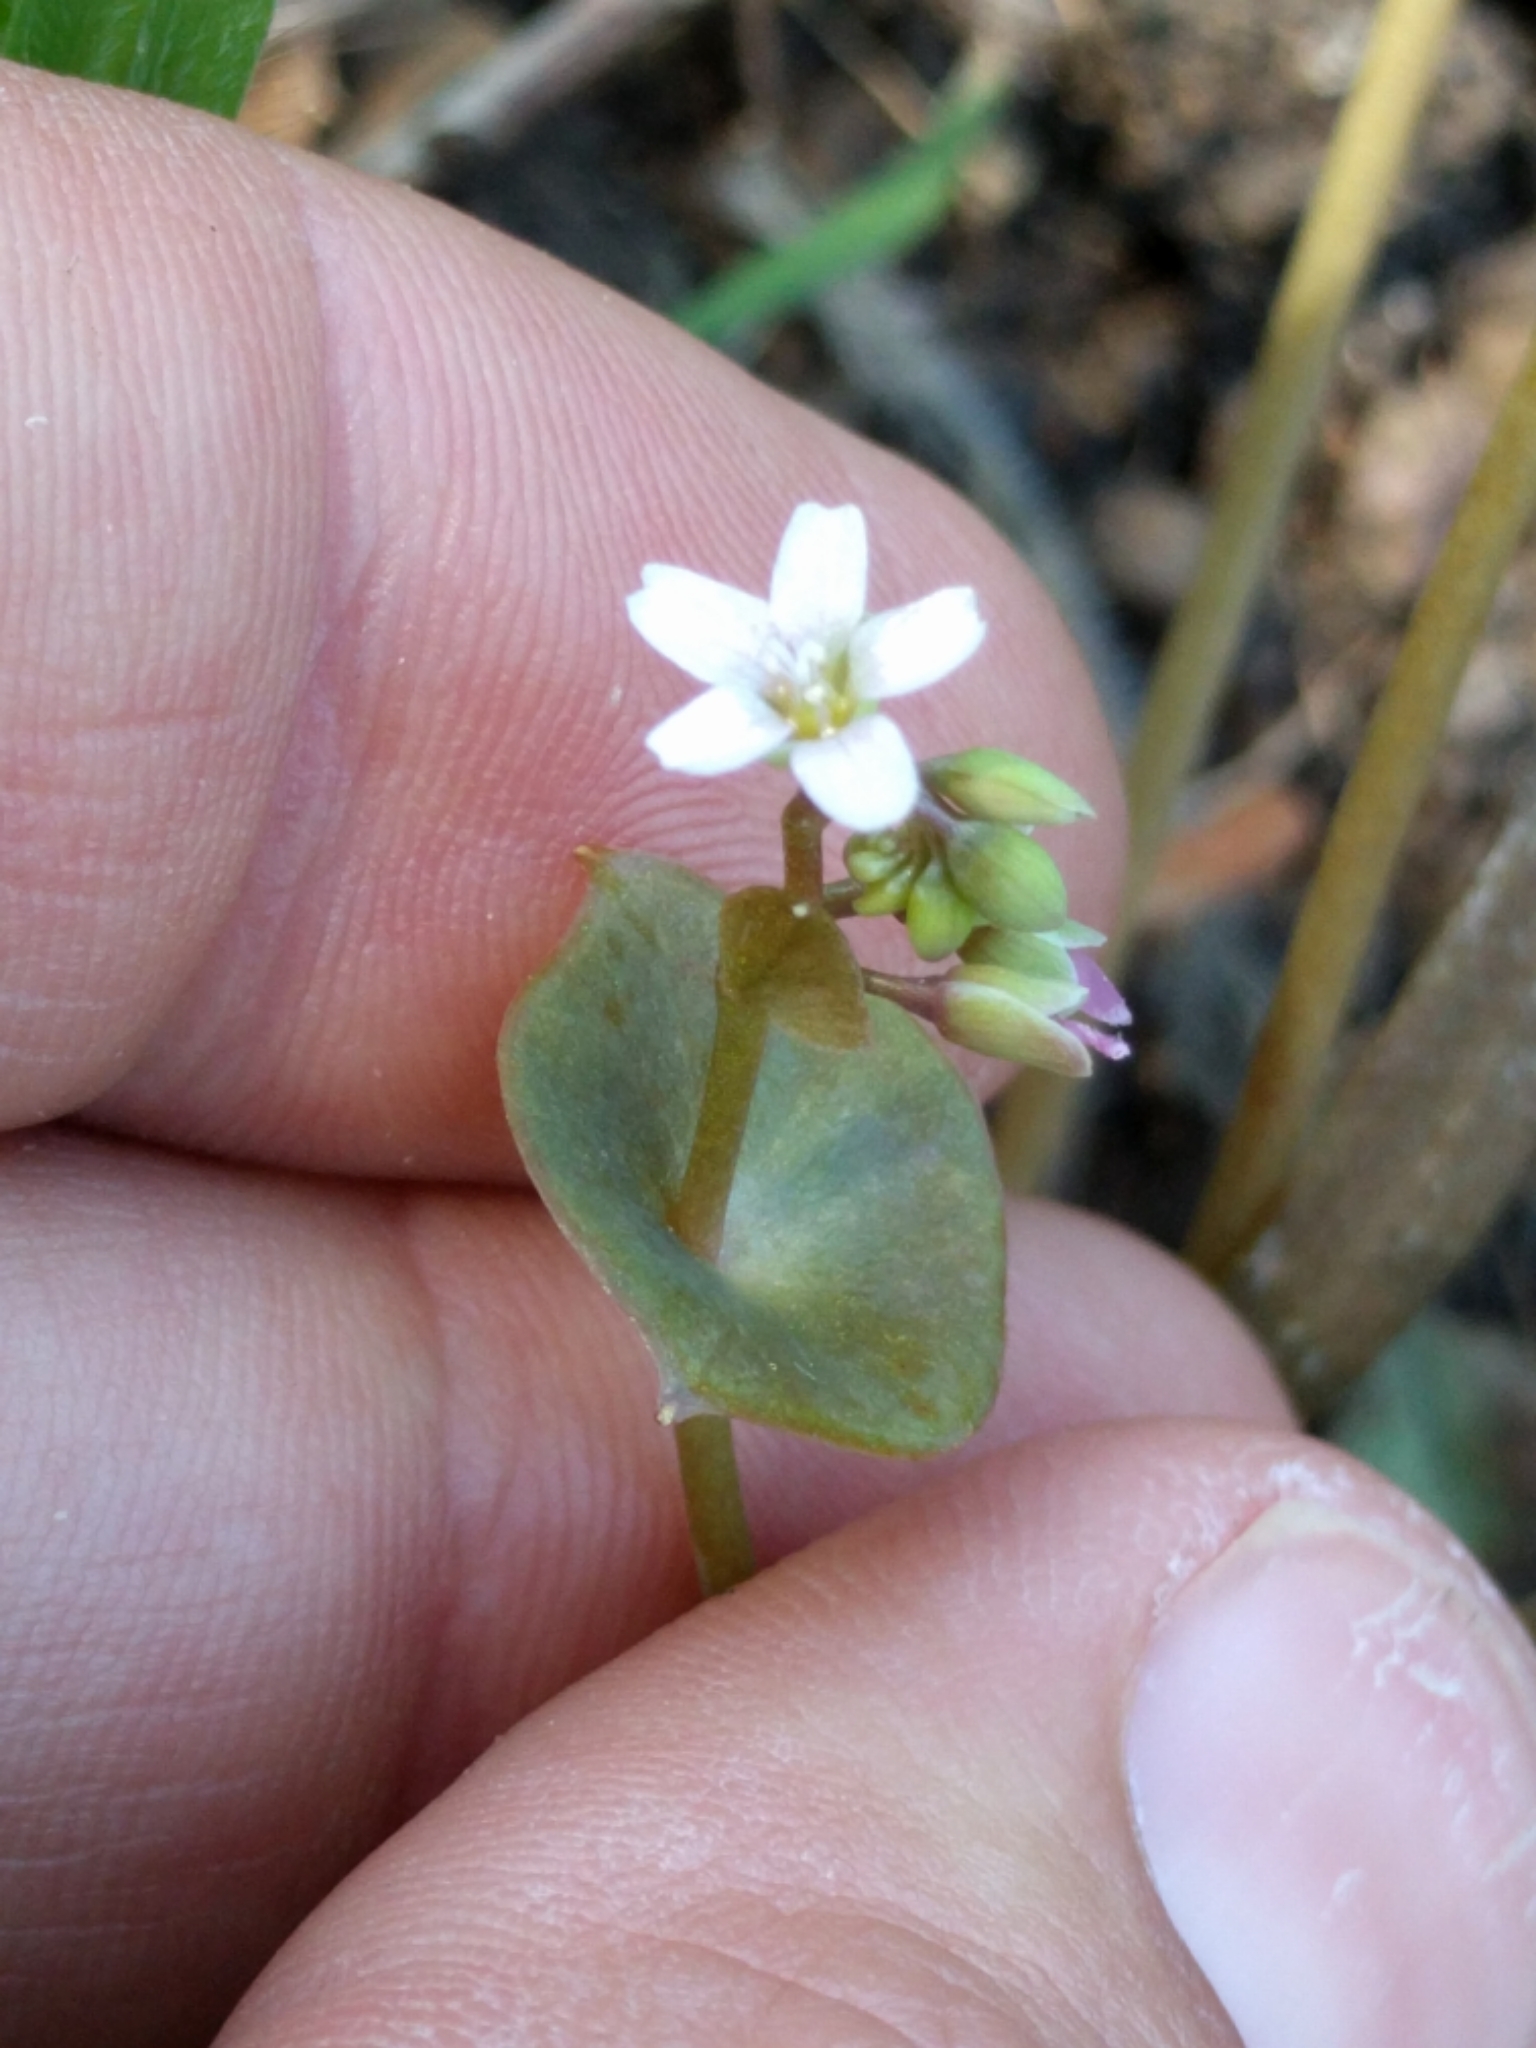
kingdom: Plantae
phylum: Tracheophyta
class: Magnoliopsida
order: Caryophyllales
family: Montiaceae
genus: Claytonia
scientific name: Claytonia parviflora
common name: Indian-lettuce
